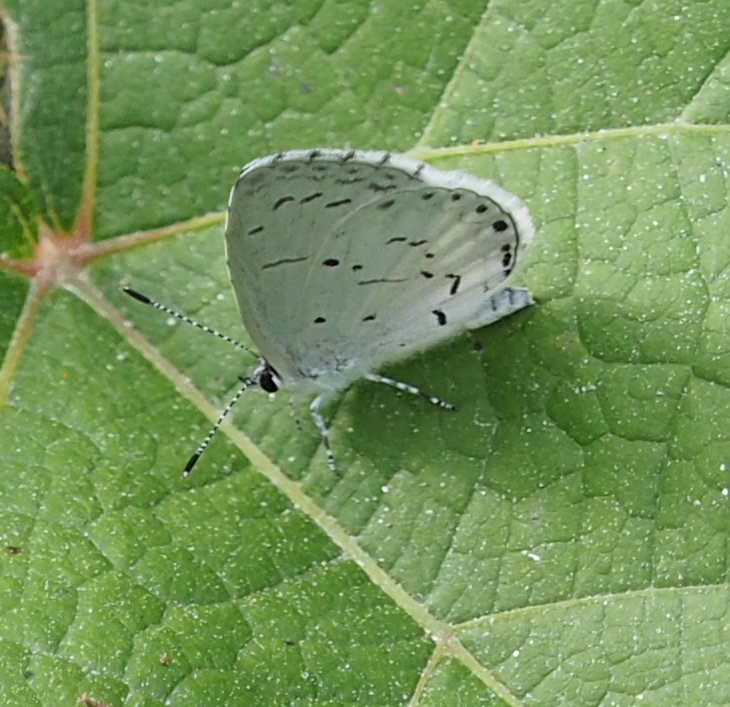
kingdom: Animalia
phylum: Arthropoda
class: Insecta
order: Lepidoptera
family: Lycaenidae
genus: Cyaniris
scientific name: Cyaniris neglecta
